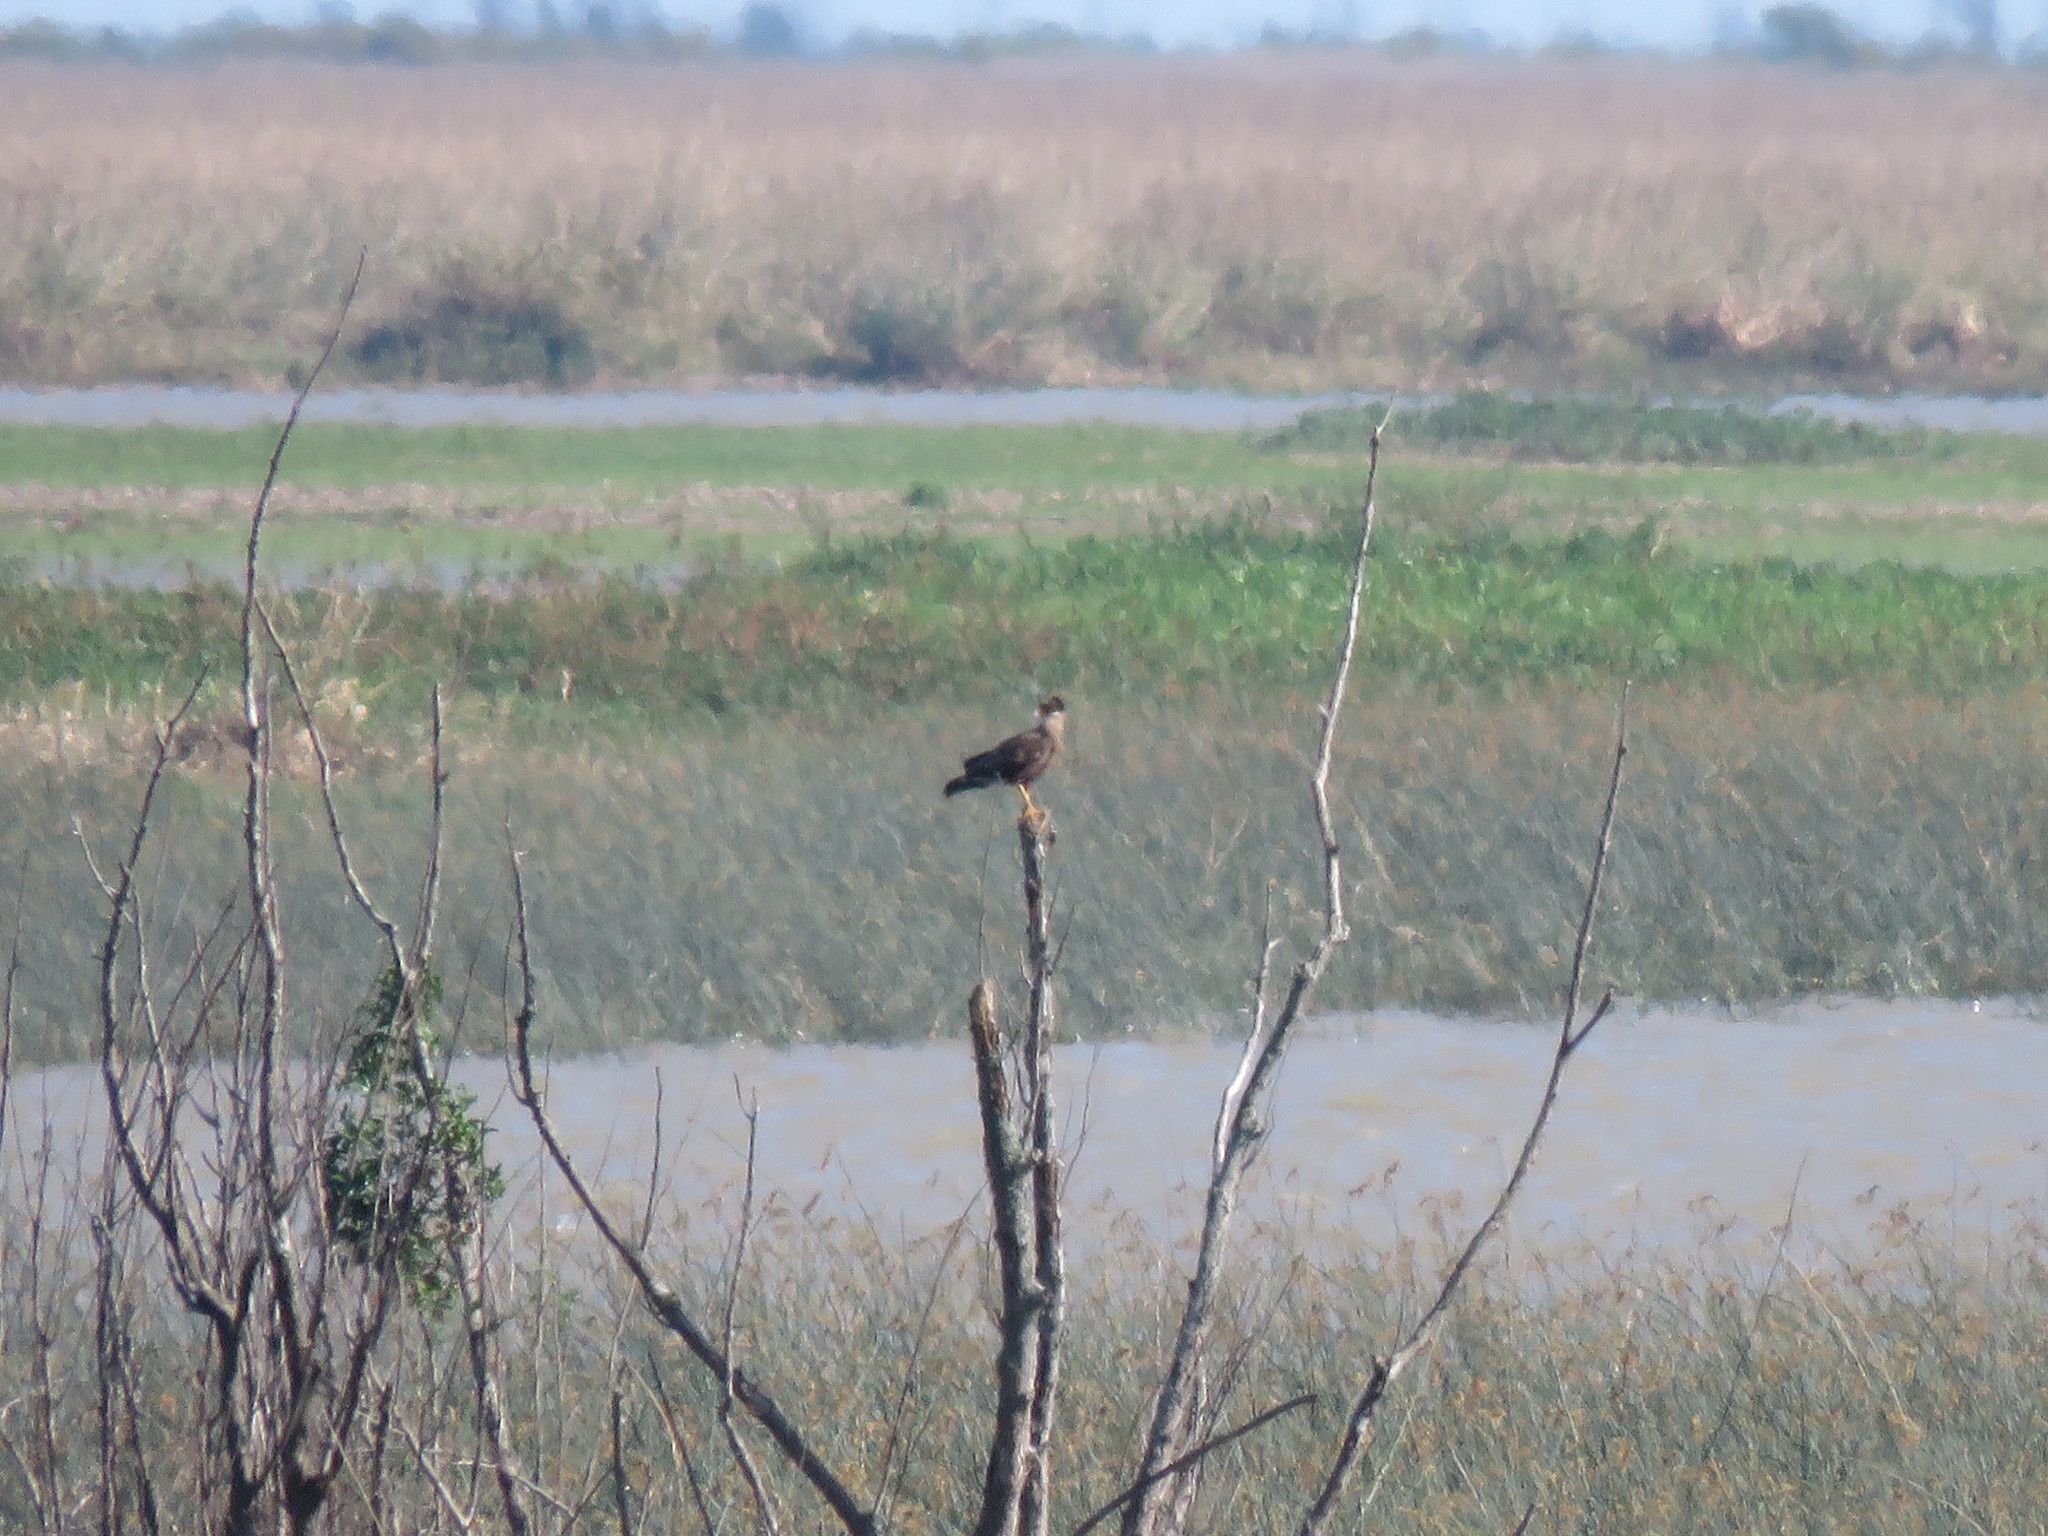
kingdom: Animalia
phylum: Chordata
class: Aves
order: Falconiformes
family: Falconidae
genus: Caracara
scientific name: Caracara plancus
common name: Southern caracara
